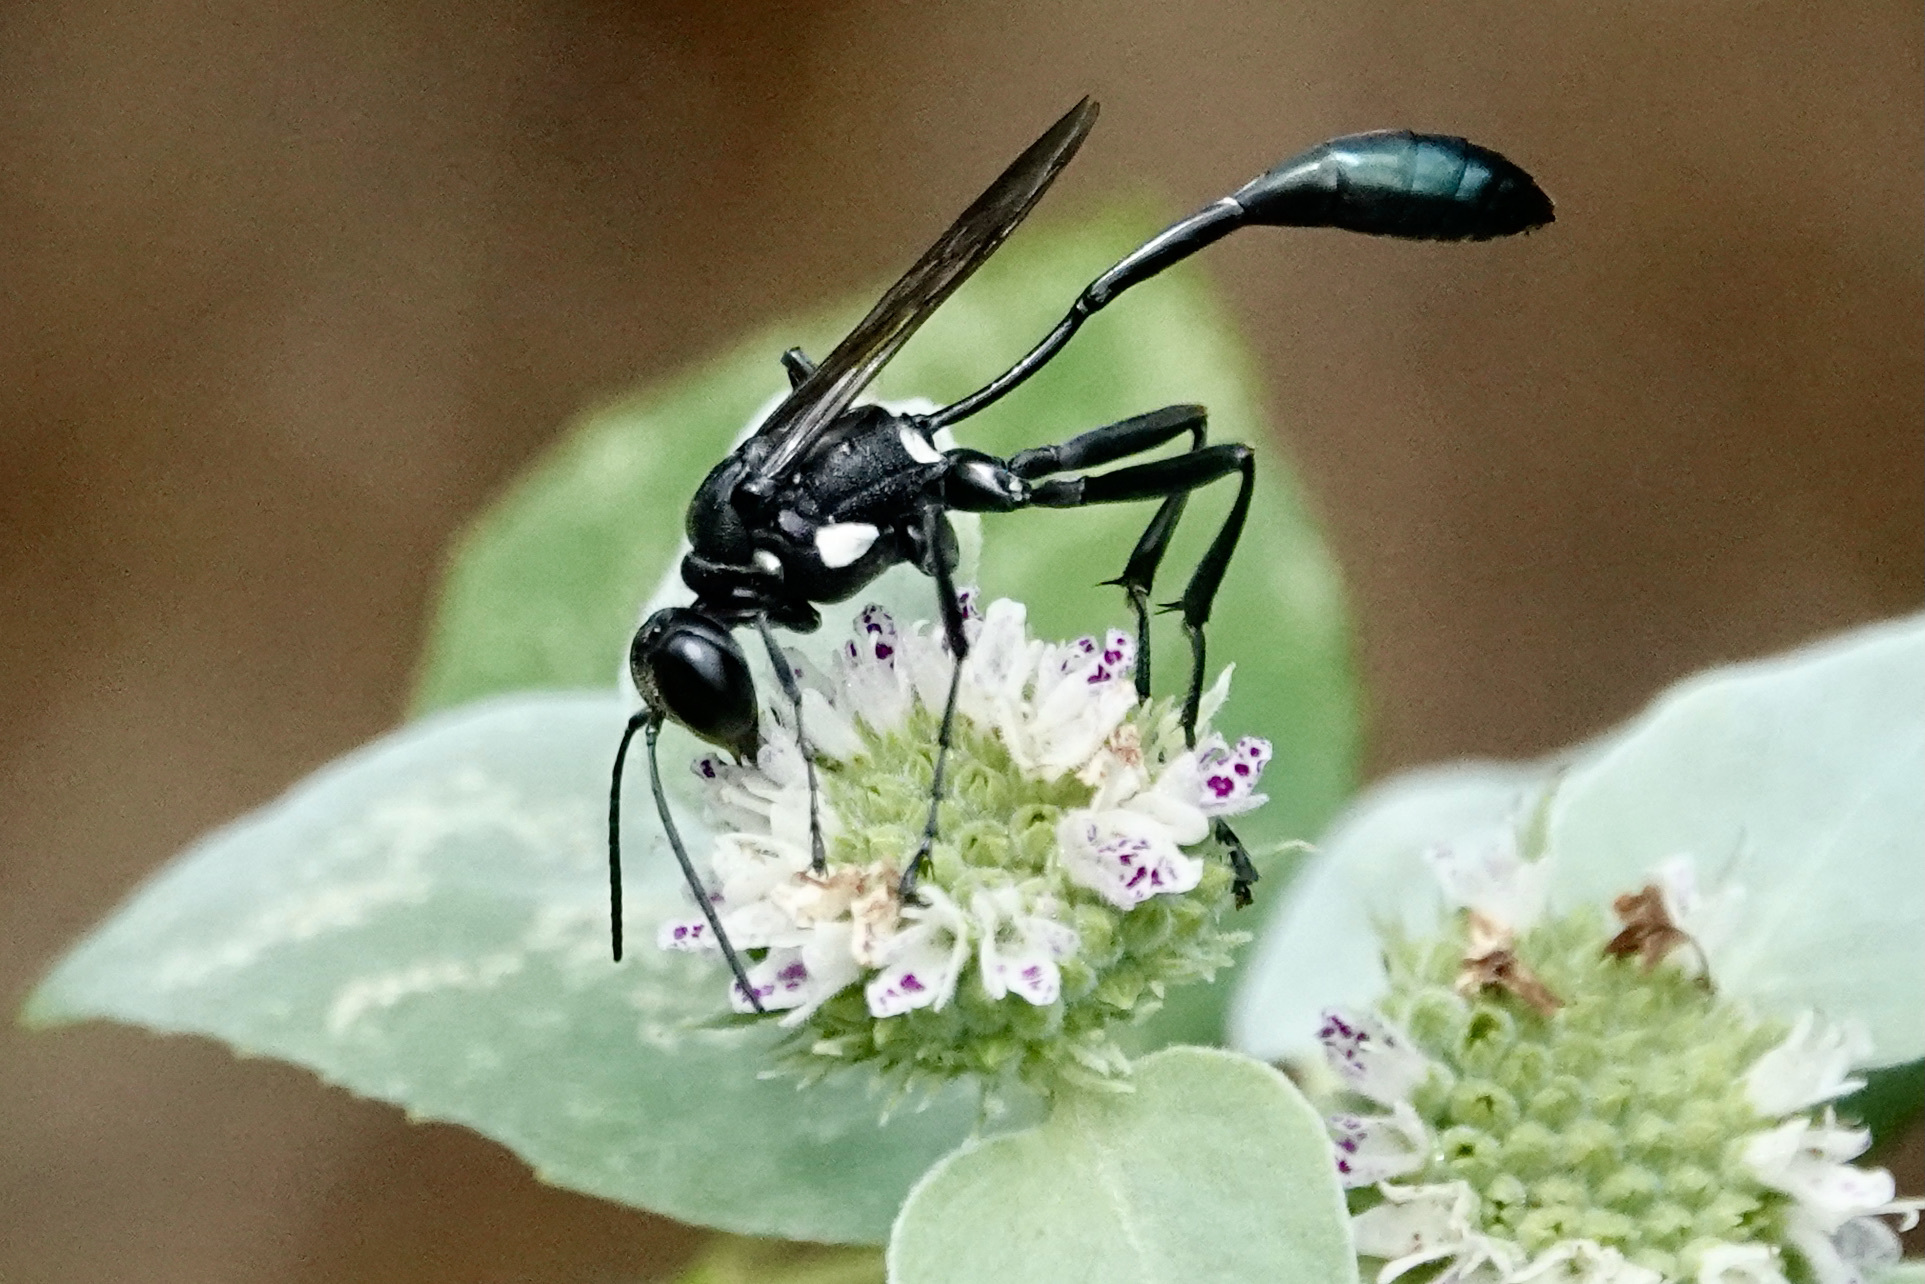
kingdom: Animalia
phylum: Arthropoda
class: Insecta
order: Hymenoptera
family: Sphecidae
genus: Eremnophila
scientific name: Eremnophila aureonotata
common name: Gold-marked thread-waisted wasp
